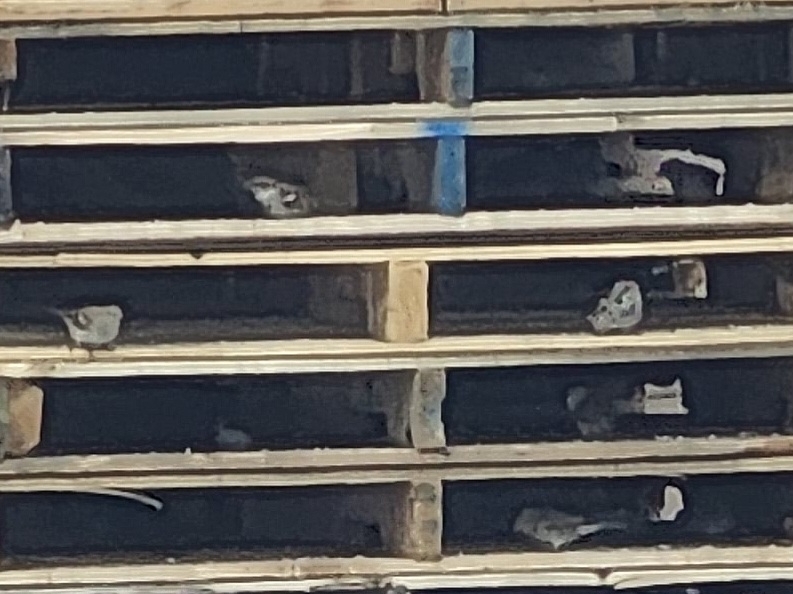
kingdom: Animalia
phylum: Chordata
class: Aves
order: Passeriformes
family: Passeridae
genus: Passer
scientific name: Passer domesticus
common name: House sparrow
